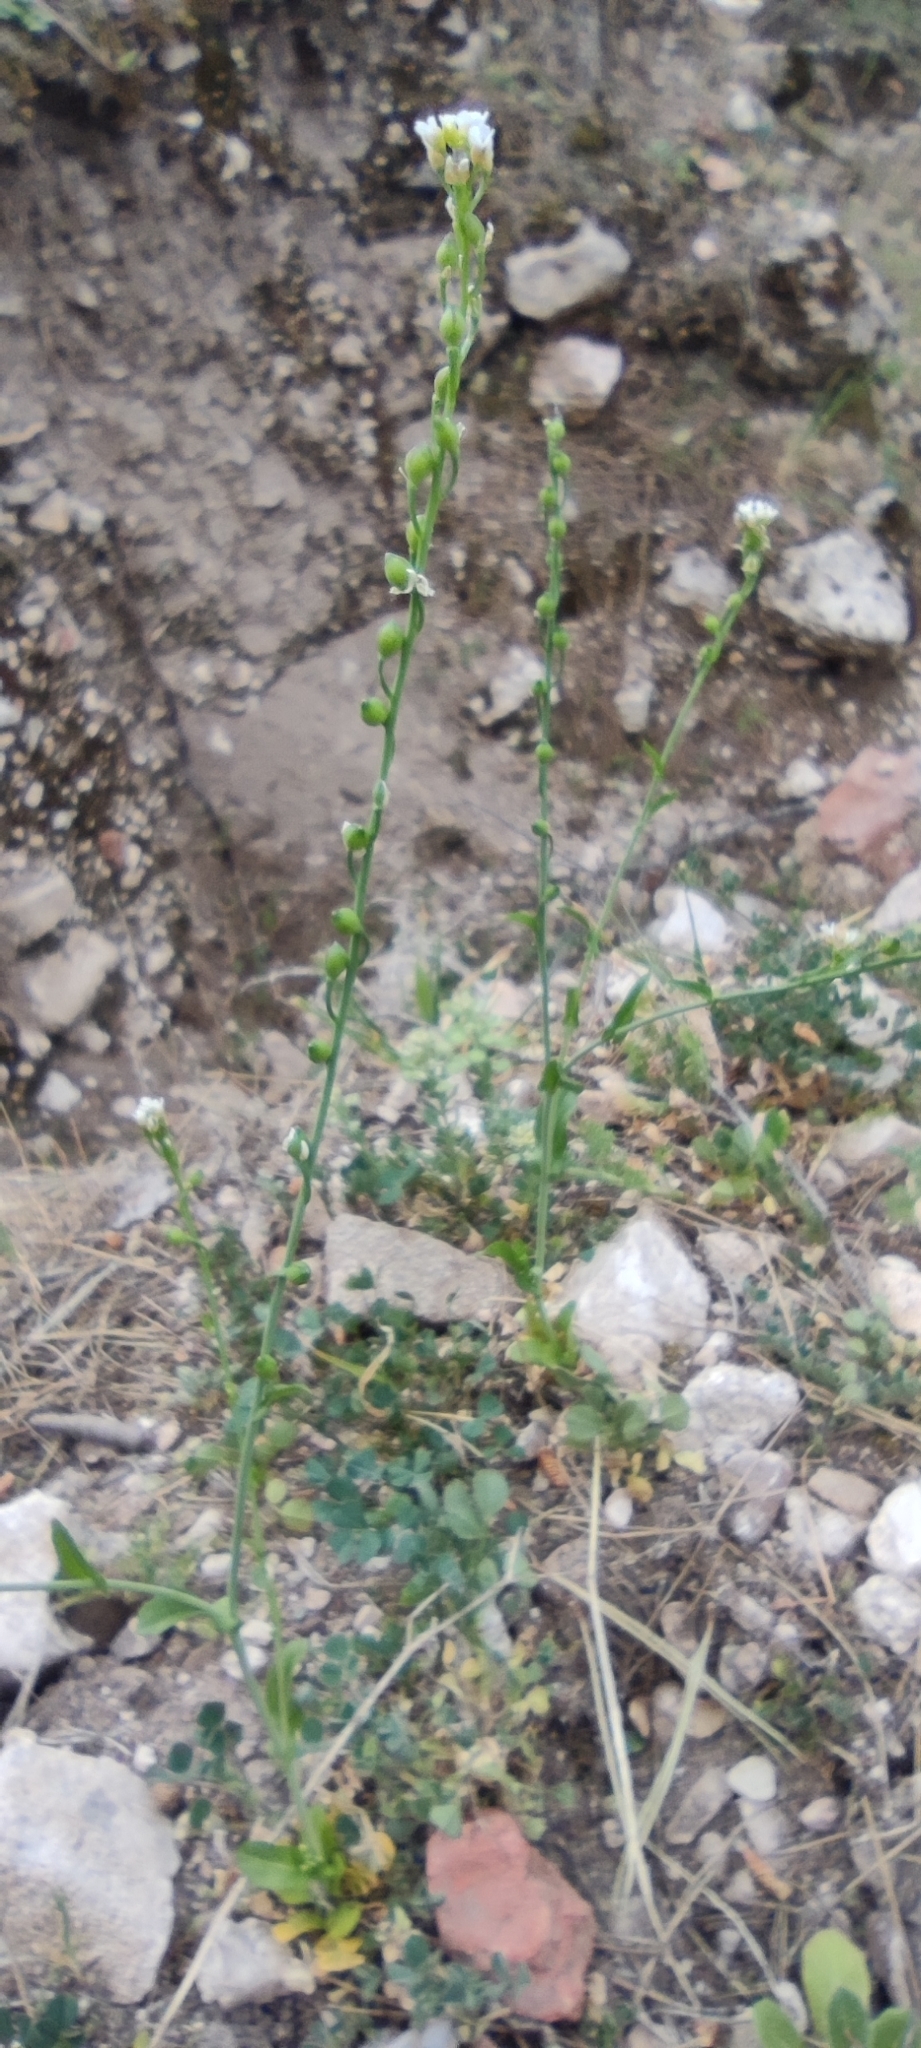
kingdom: Plantae
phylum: Tracheophyta
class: Magnoliopsida
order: Brassicales
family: Brassicaceae
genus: Calepina
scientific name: Calepina irregularis
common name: White ballmustard
